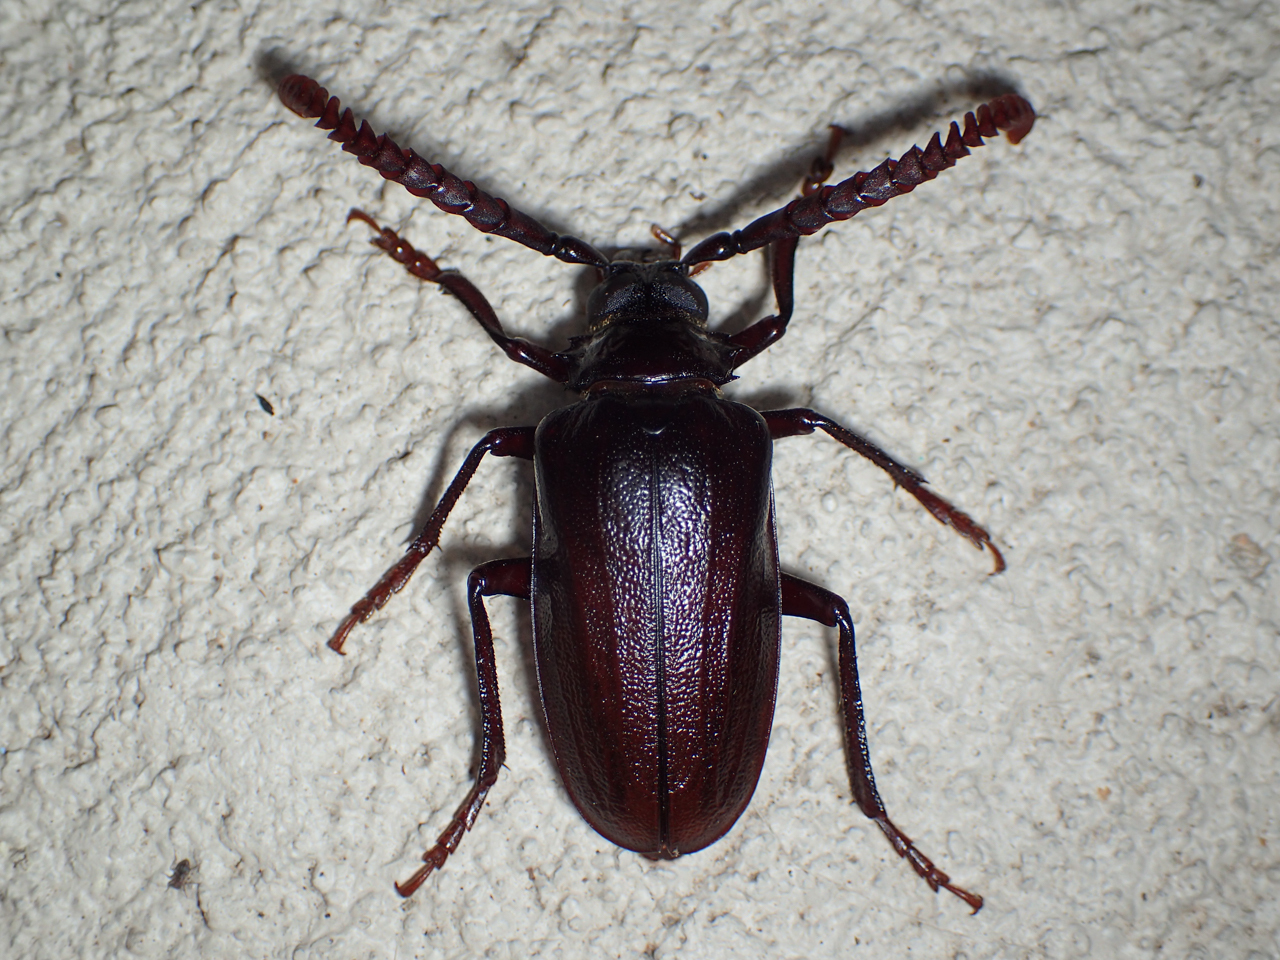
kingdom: Animalia
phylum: Arthropoda
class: Insecta
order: Coleoptera
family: Cerambycidae
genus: Prionus
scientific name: Prionus imbricornis
